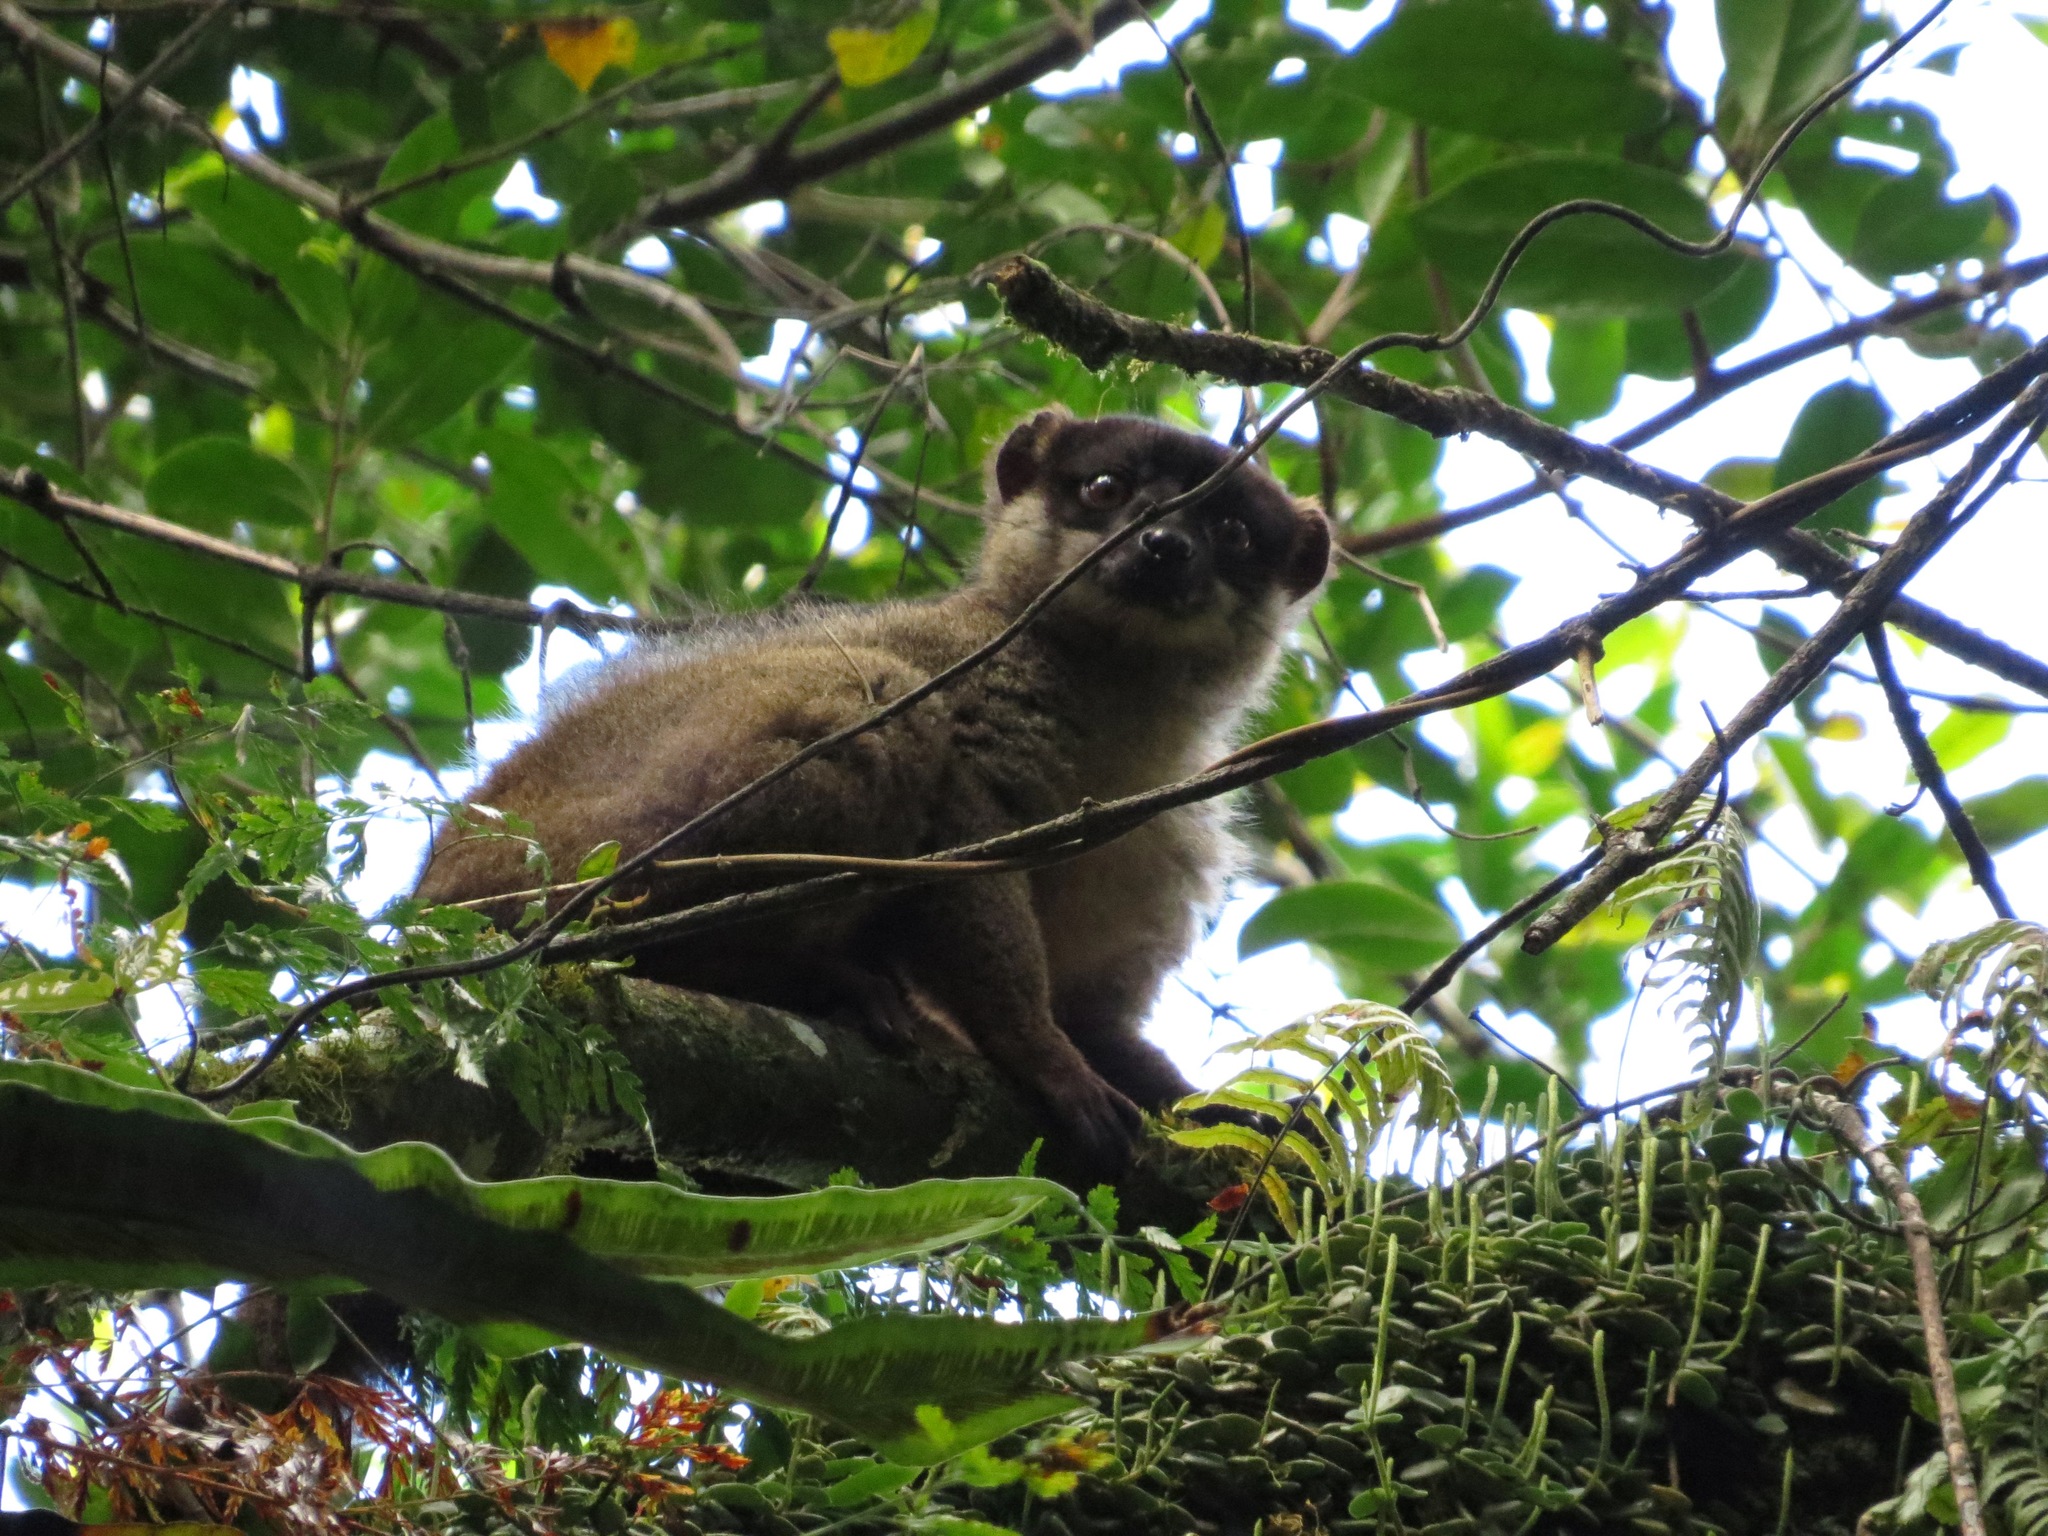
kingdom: Animalia
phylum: Chordata
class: Mammalia
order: Primates
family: Lemuridae
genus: Eulemur
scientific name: Eulemur fulvus
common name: Brown lemur
